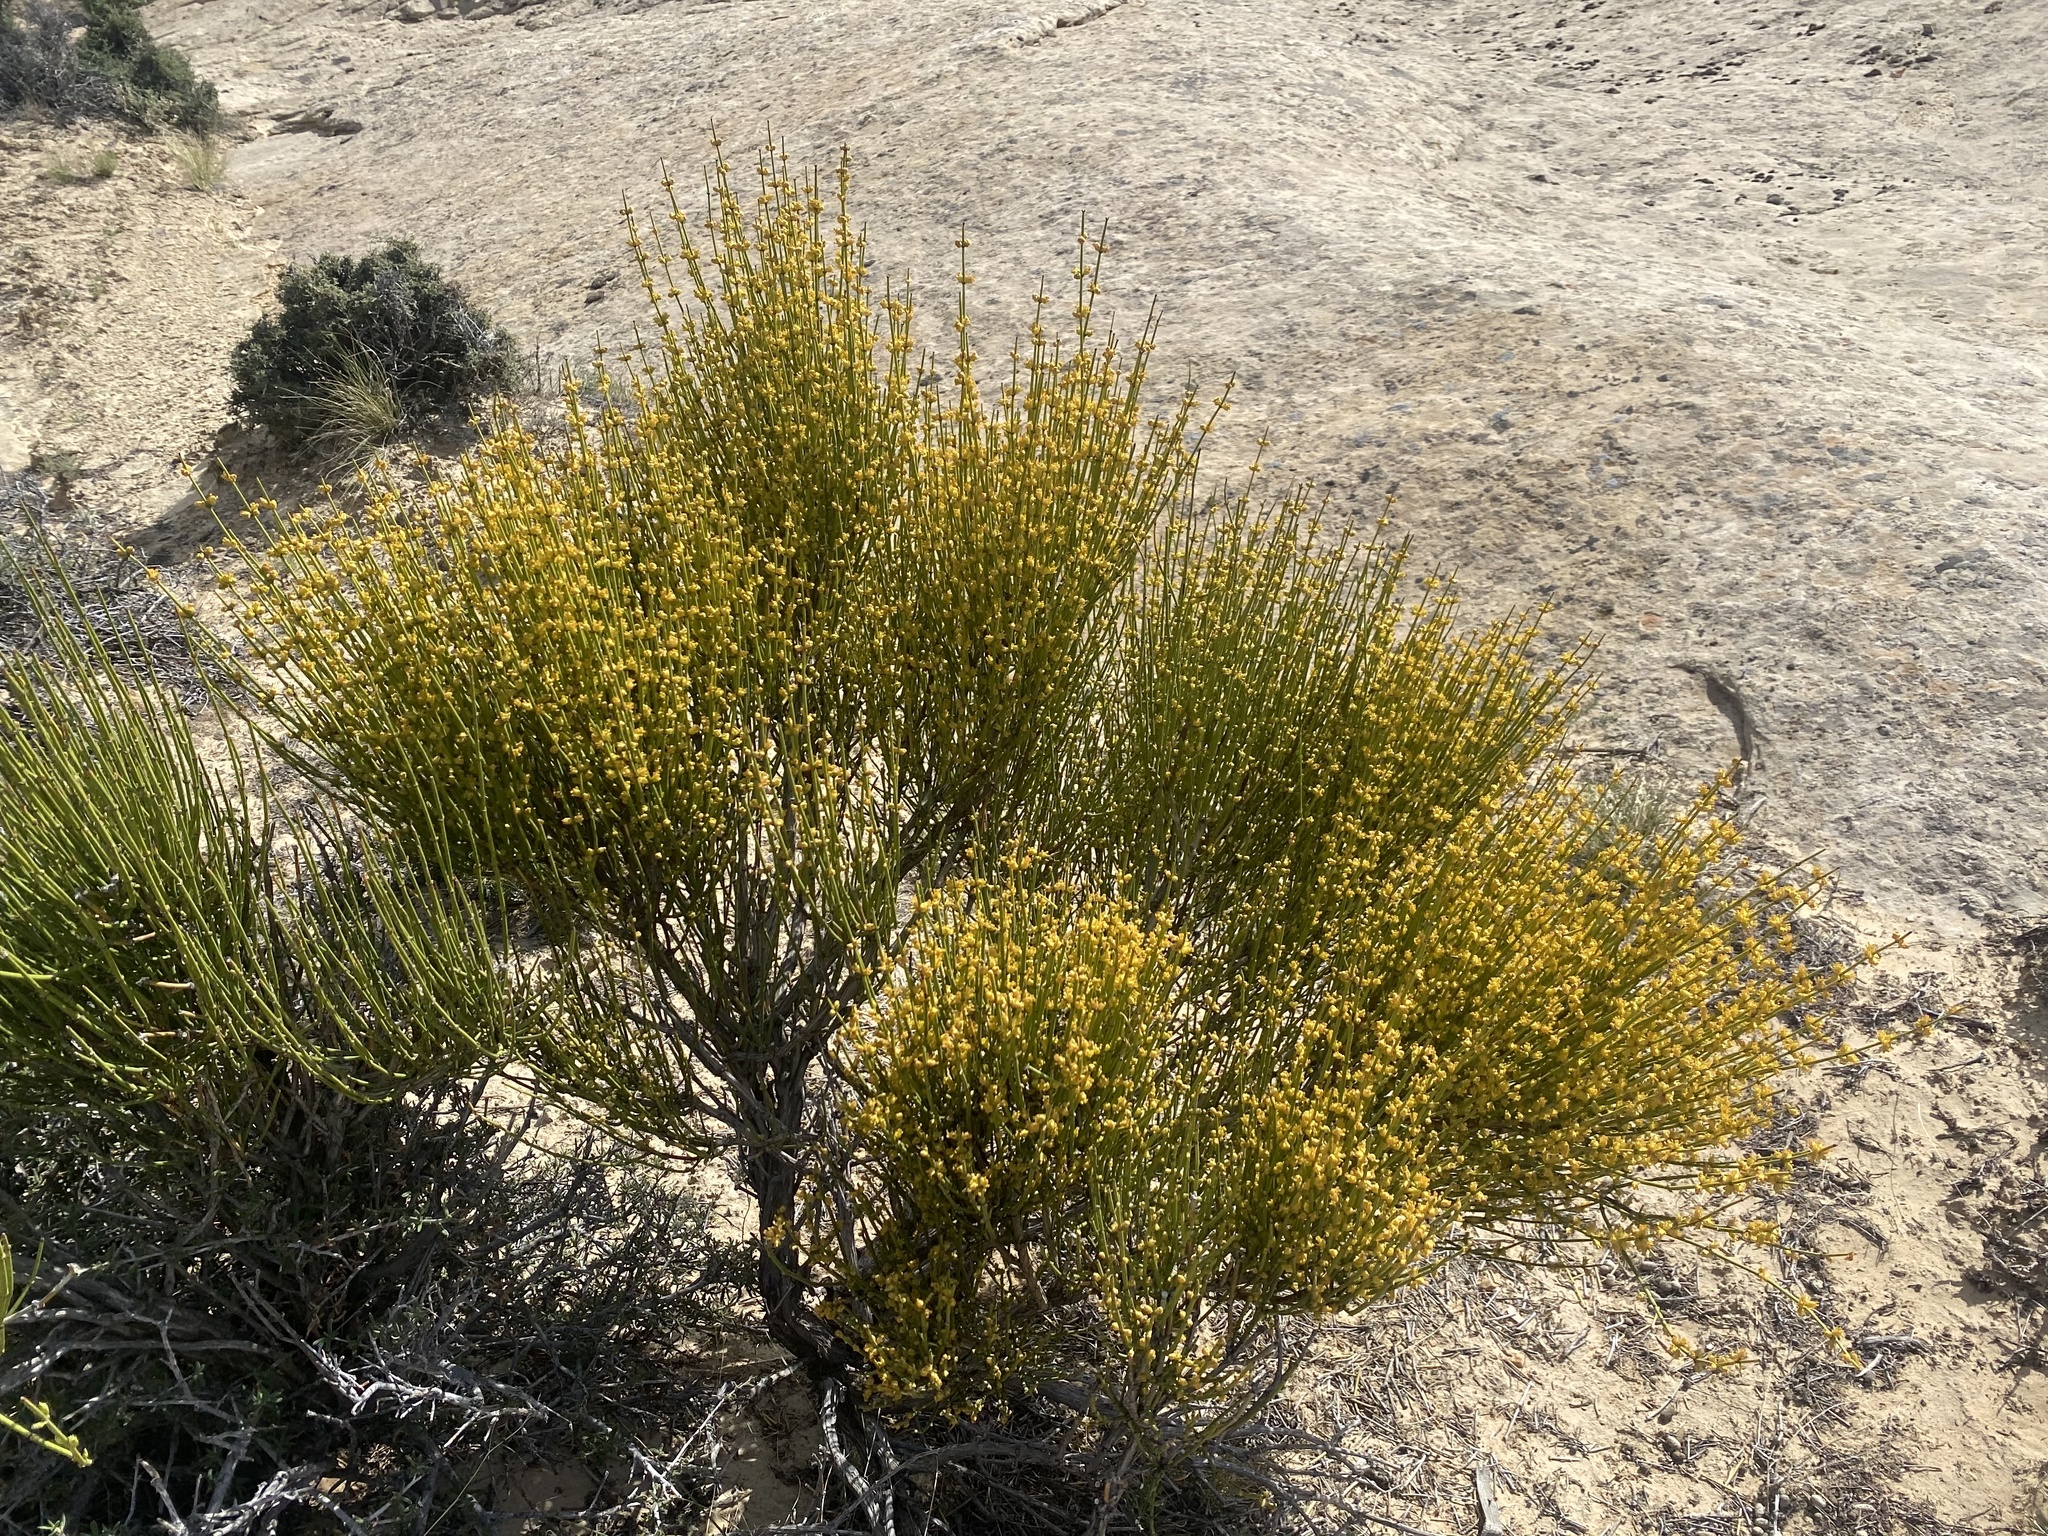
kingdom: Plantae
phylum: Tracheophyta
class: Gnetopsida
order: Ephedrales
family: Ephedraceae
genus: Ephedra
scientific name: Ephedra viridis
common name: Green ephedra
